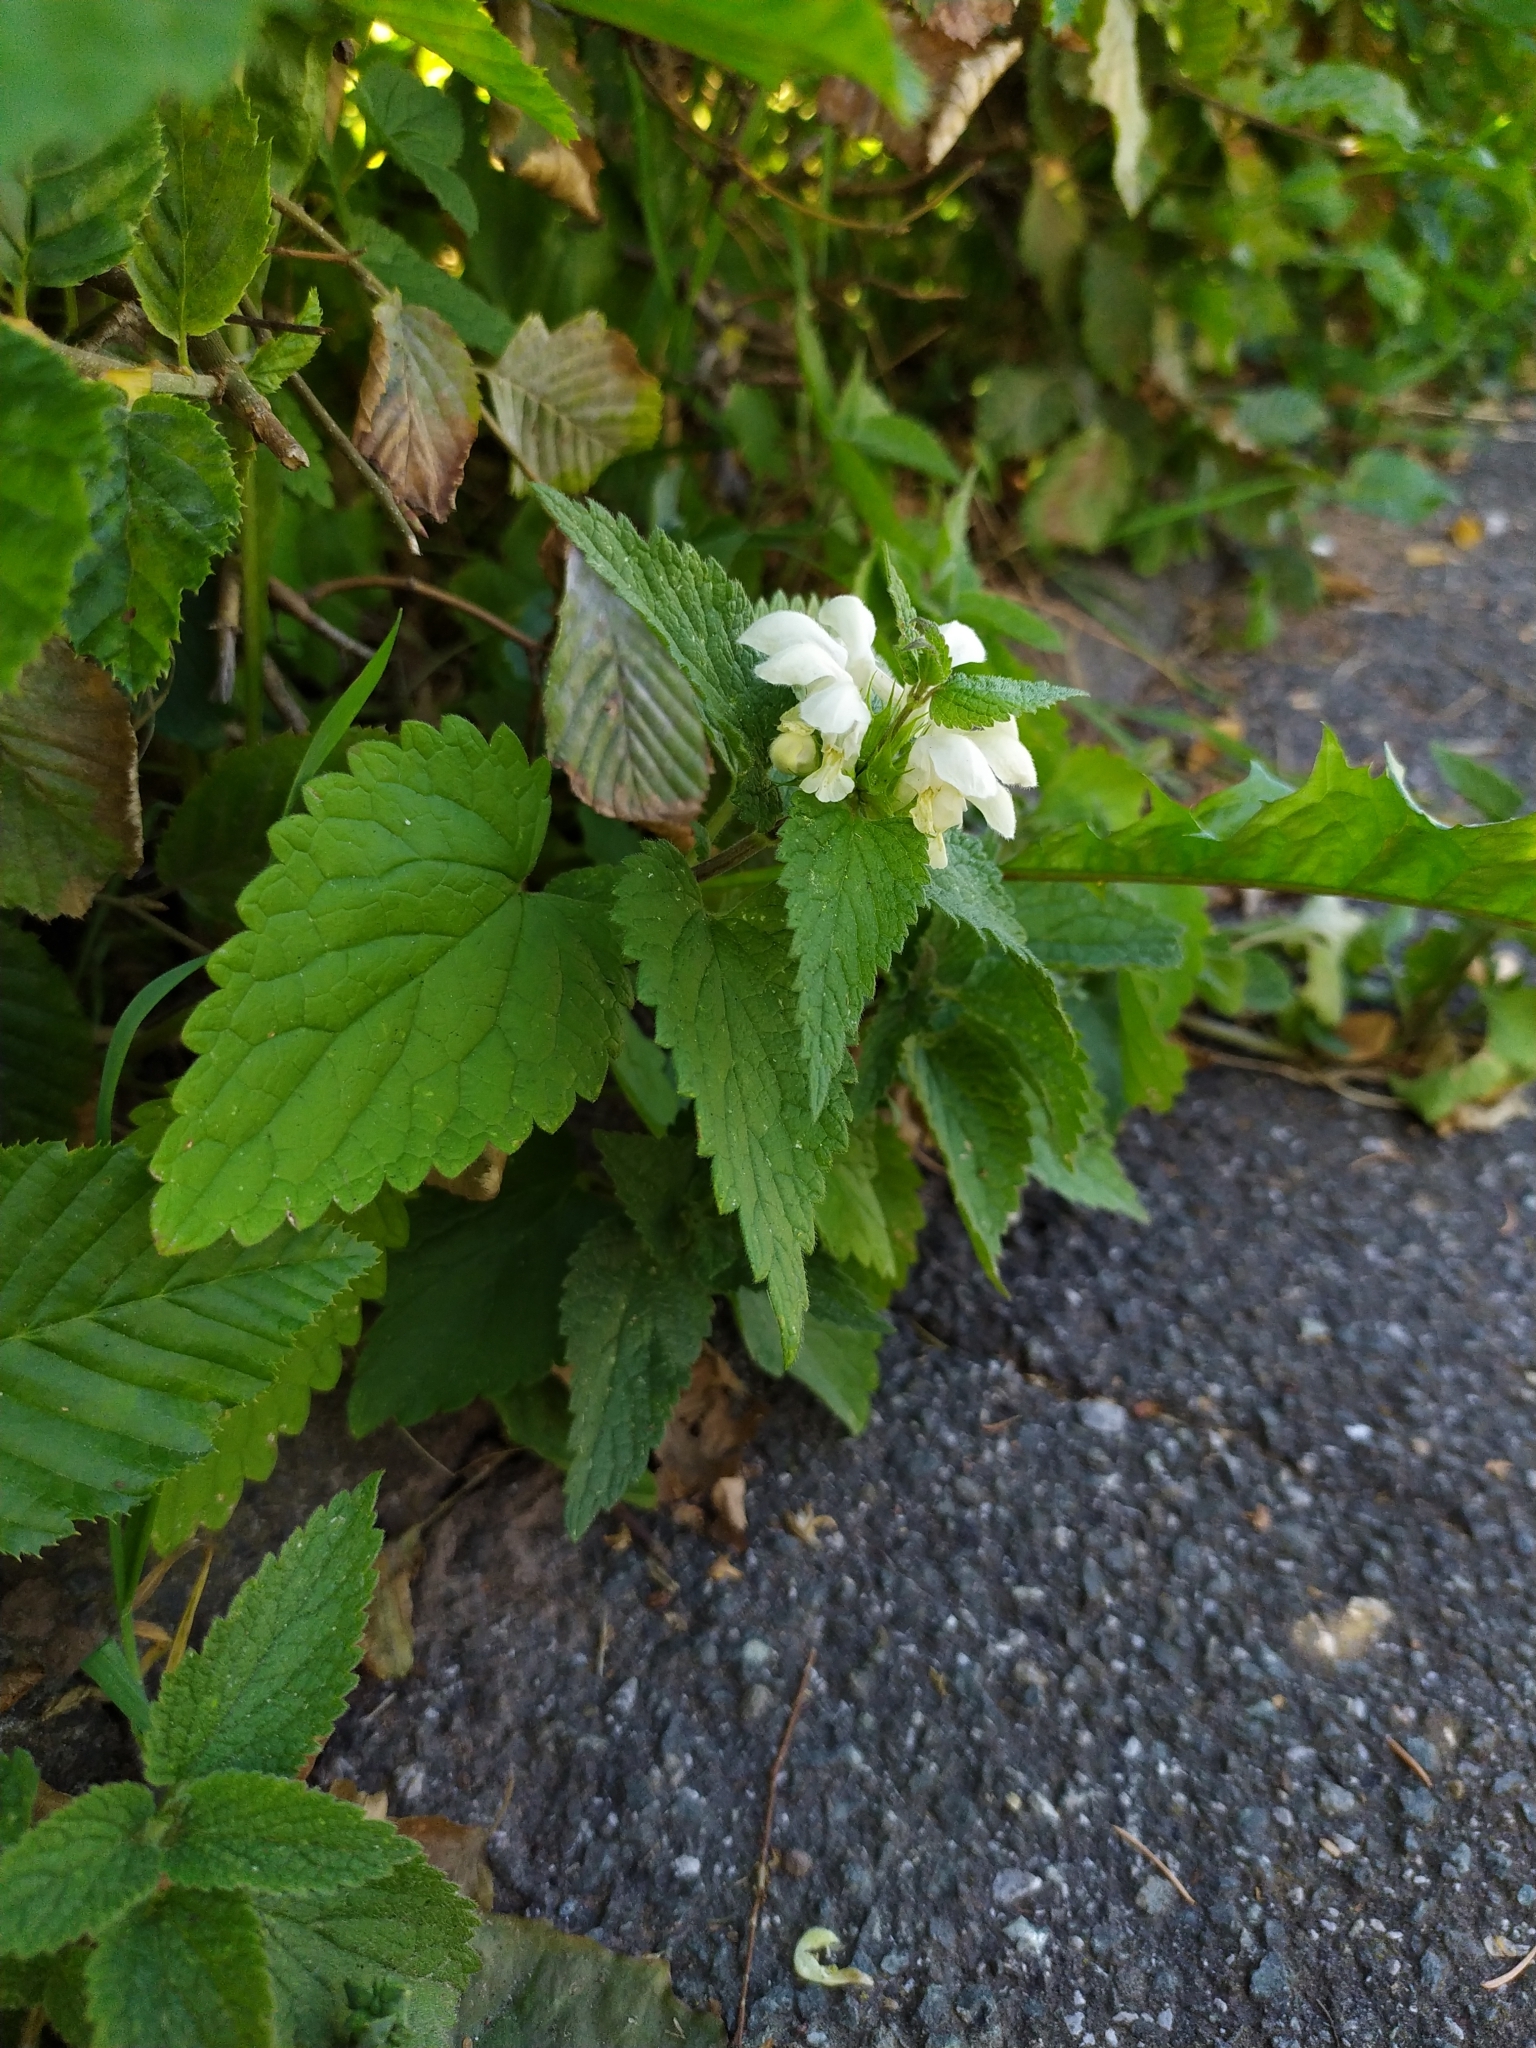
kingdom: Plantae
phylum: Tracheophyta
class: Magnoliopsida
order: Lamiales
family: Lamiaceae
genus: Lamium
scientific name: Lamium album
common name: White dead-nettle
